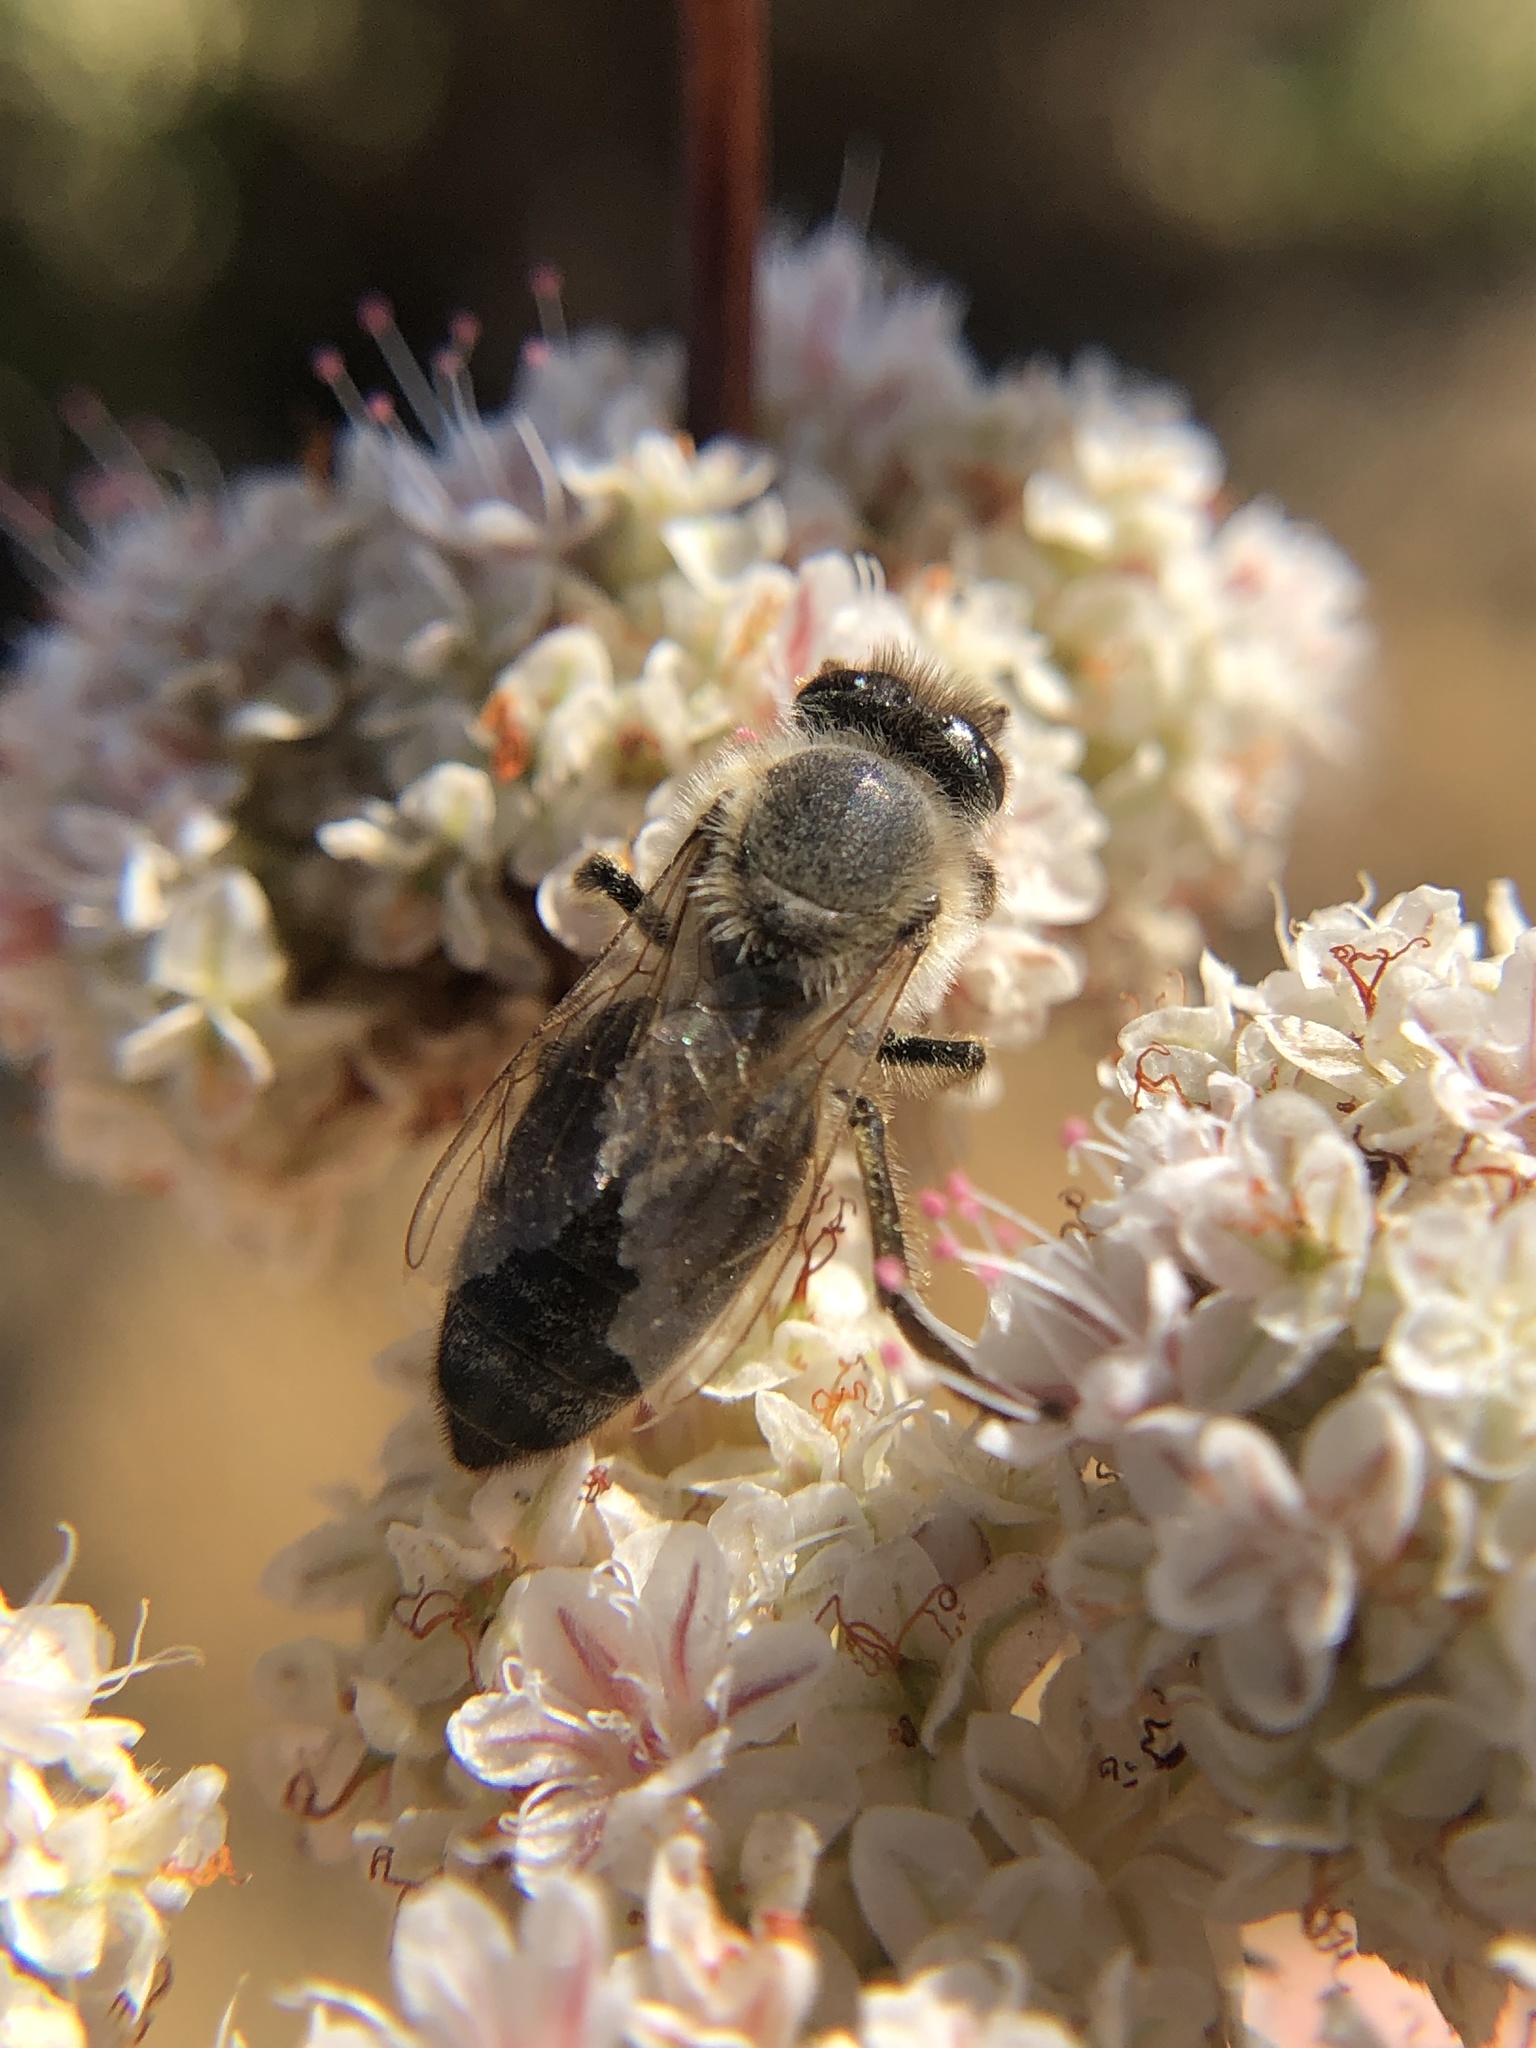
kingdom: Animalia
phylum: Arthropoda
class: Insecta
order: Hymenoptera
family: Apidae
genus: Apis
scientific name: Apis mellifera
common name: Honey bee
